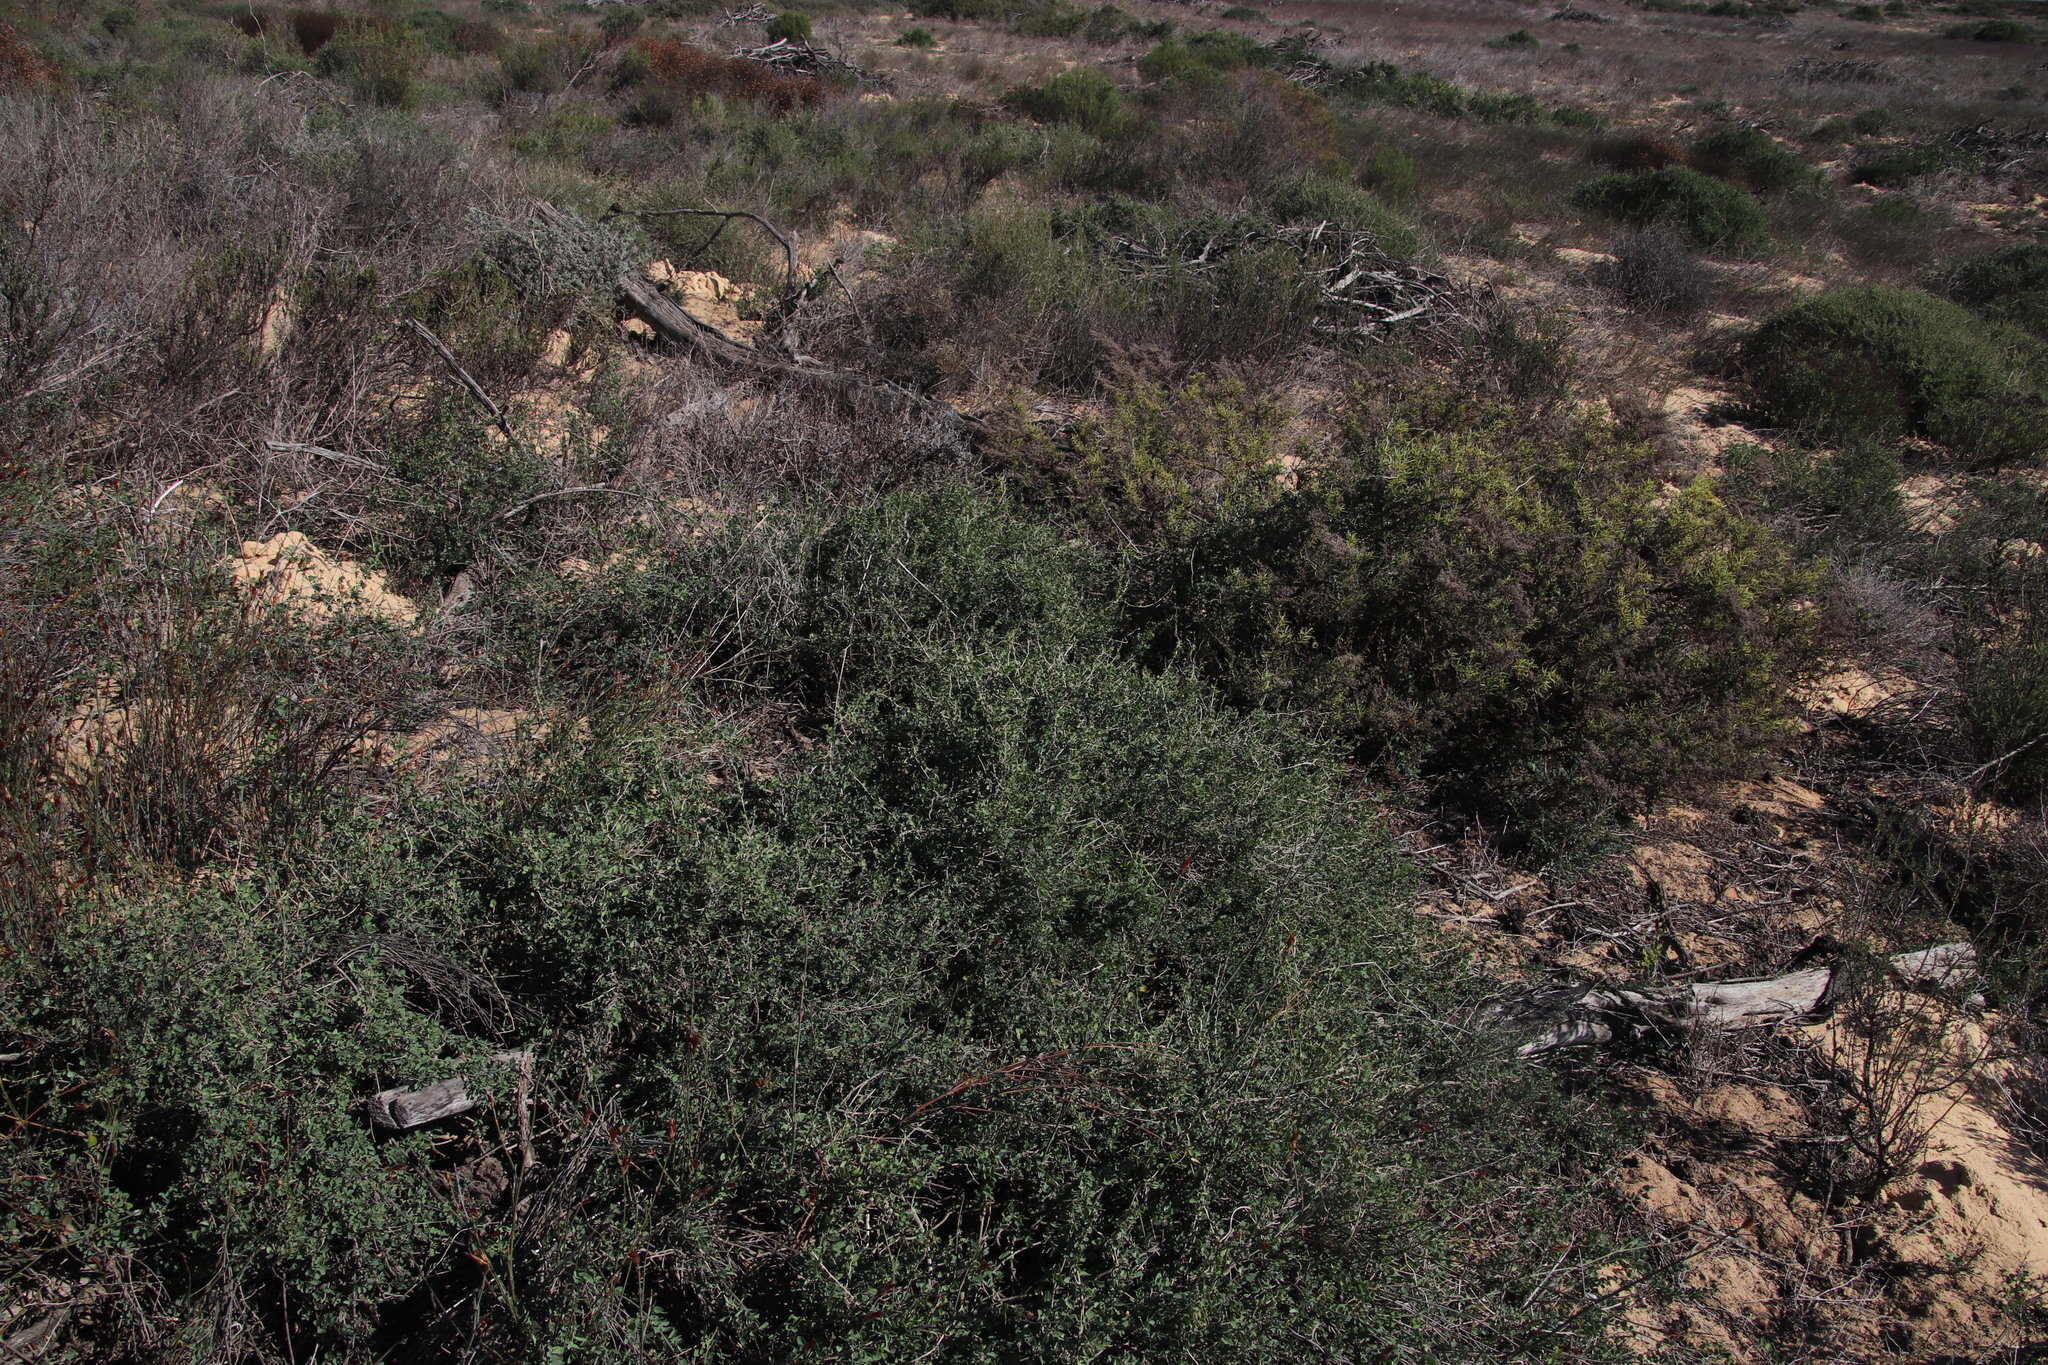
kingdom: Plantae
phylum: Tracheophyta
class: Magnoliopsida
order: Zygophyllales
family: Zygophyllaceae
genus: Roepera
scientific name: Roepera sessilifolia
